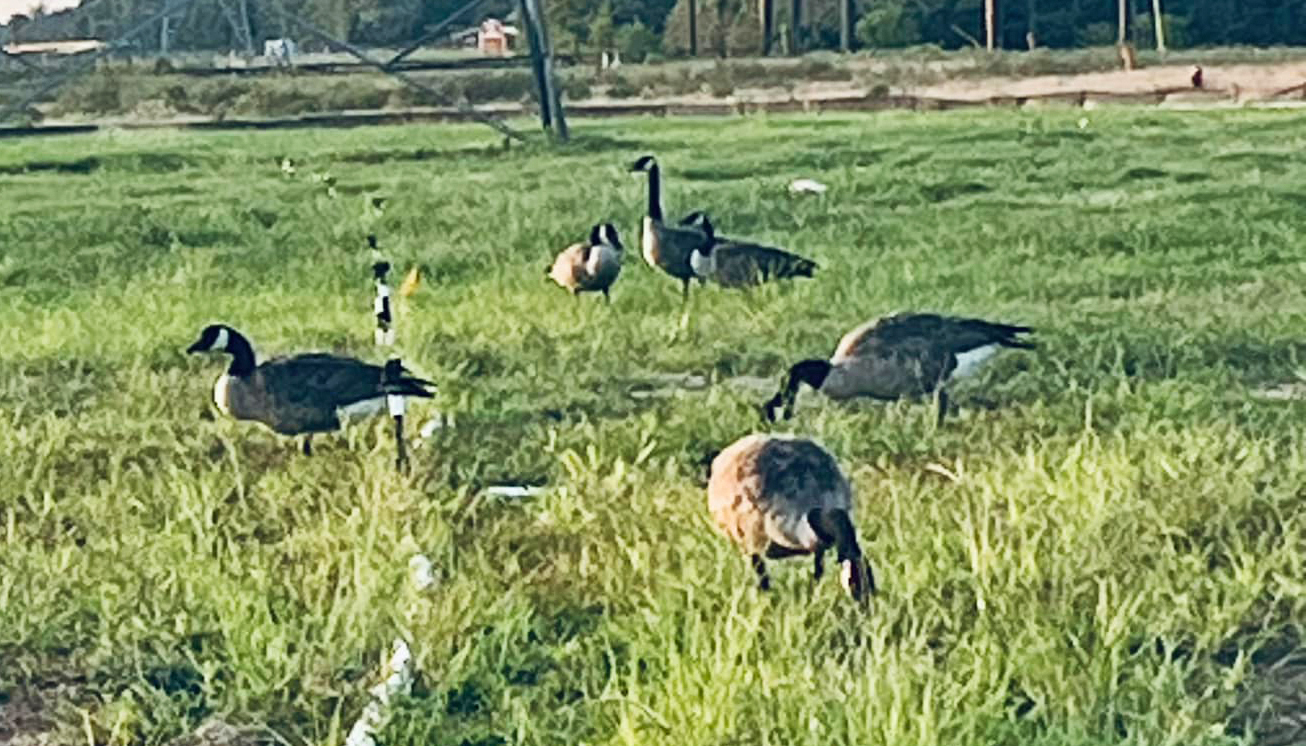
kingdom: Animalia
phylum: Chordata
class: Aves
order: Anseriformes
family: Anatidae
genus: Branta
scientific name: Branta canadensis
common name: Canada goose
